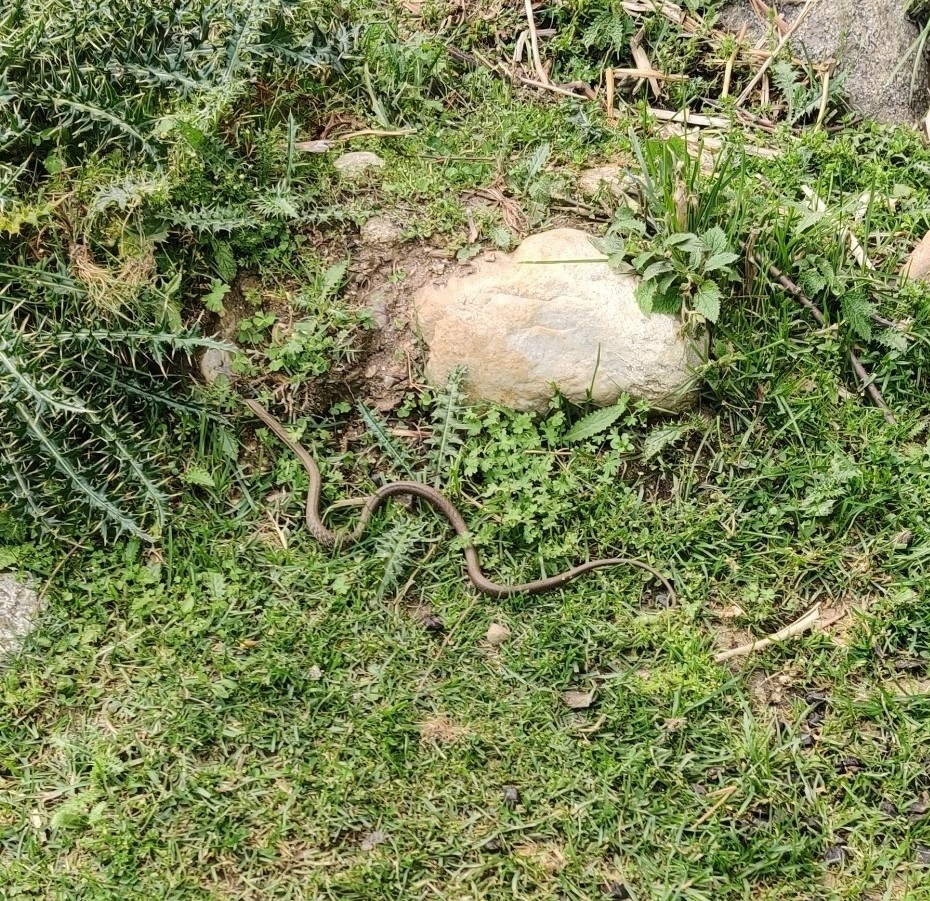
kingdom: Animalia
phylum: Chordata
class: Squamata
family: Colubridae
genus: Elaphe
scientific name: Elaphe hodgsoni
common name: English common name not available
